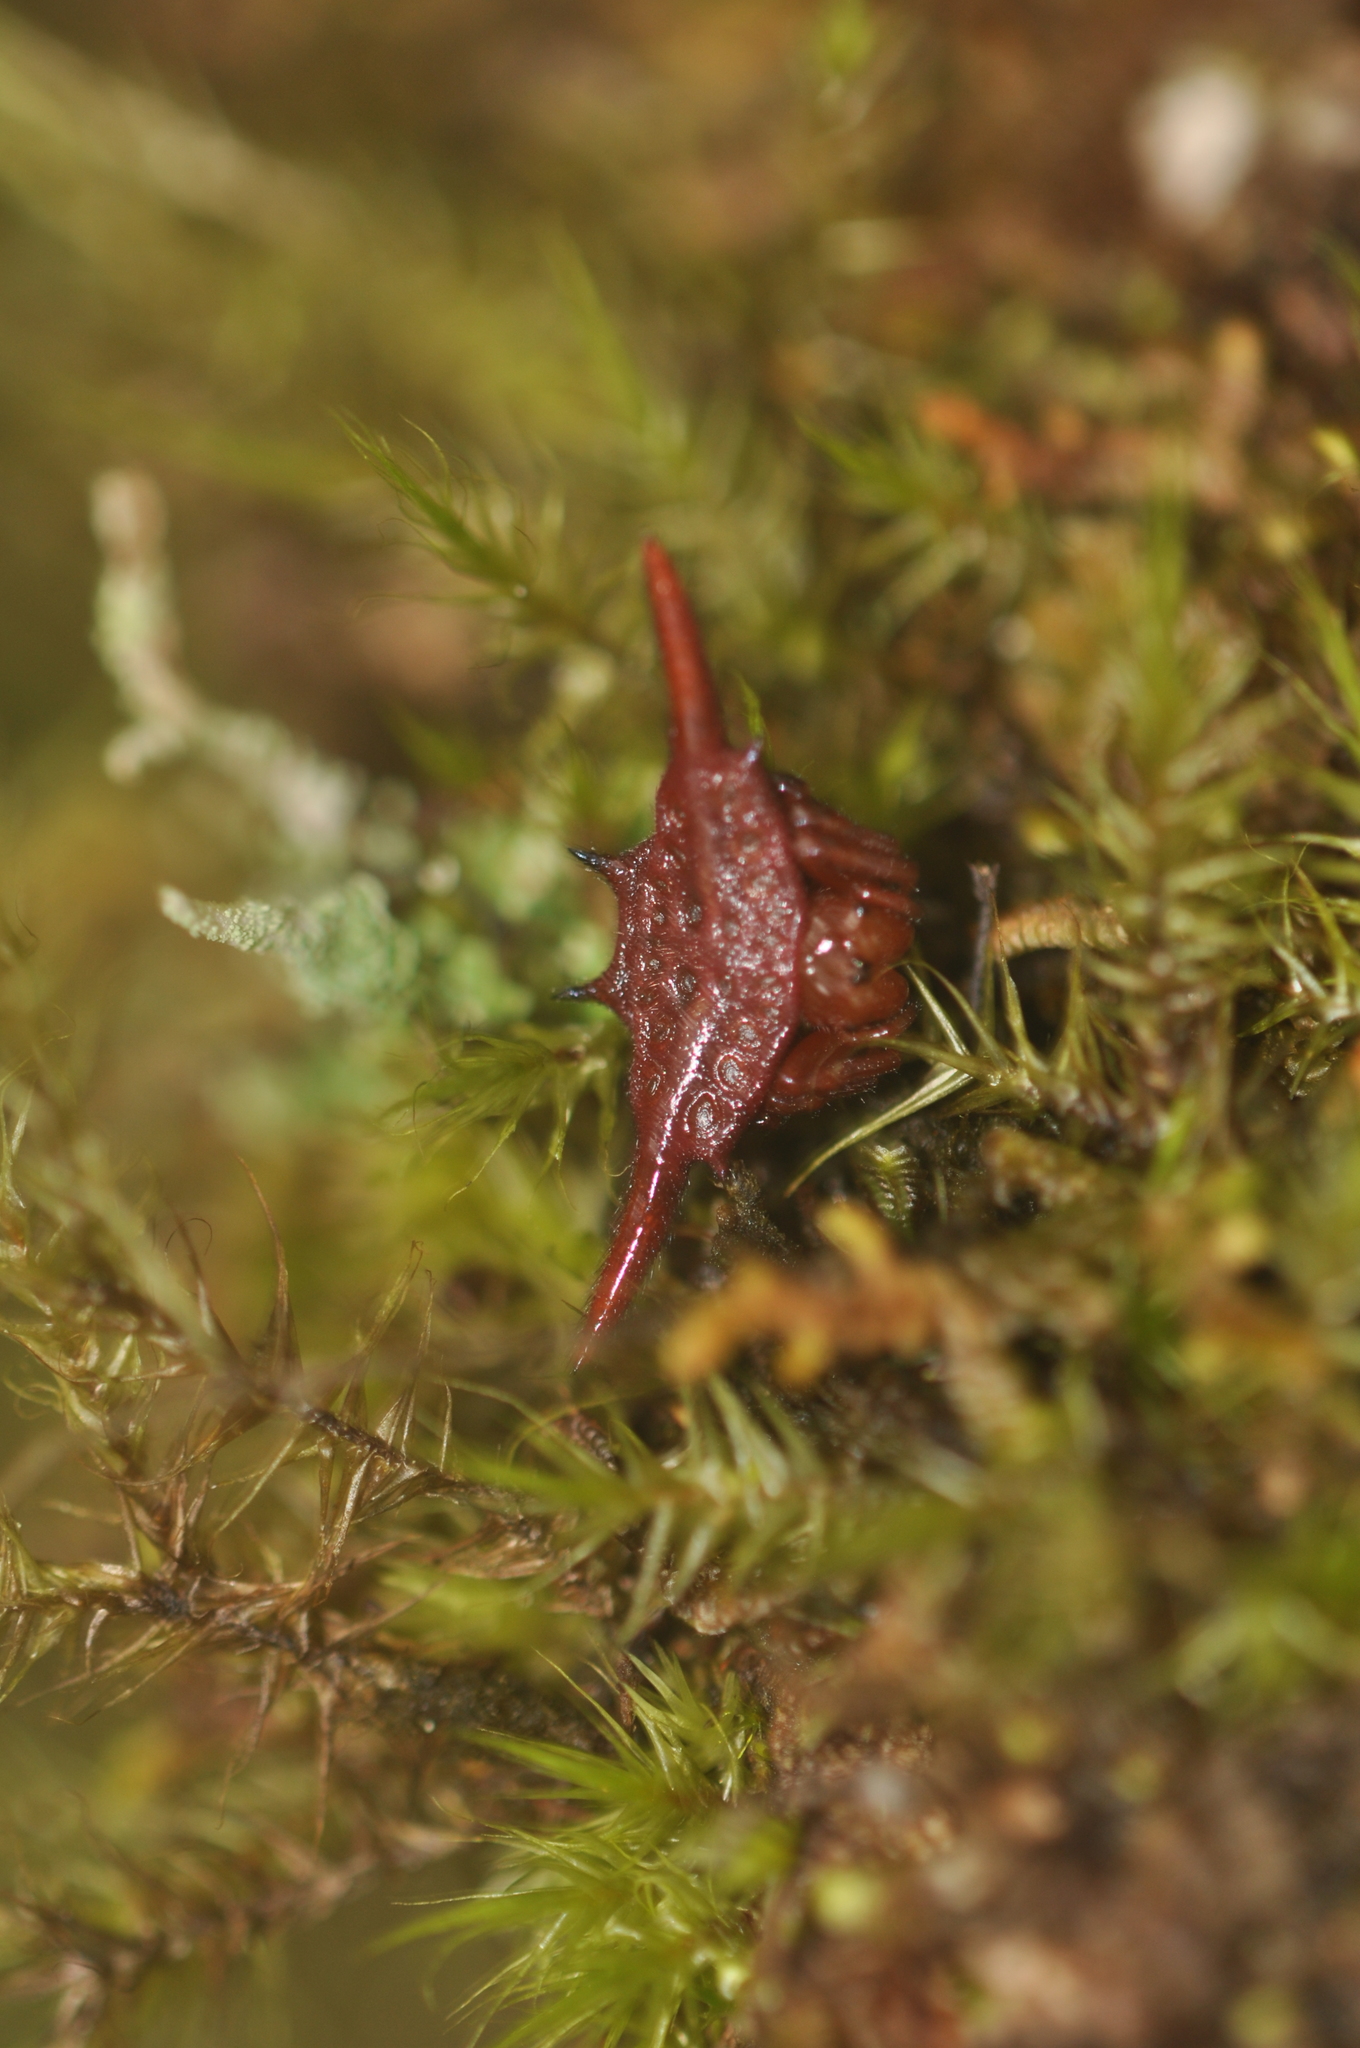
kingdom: Animalia
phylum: Arthropoda
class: Arachnida
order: Araneae
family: Araneidae
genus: Gasteracantha
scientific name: Gasteracantha versicolor
